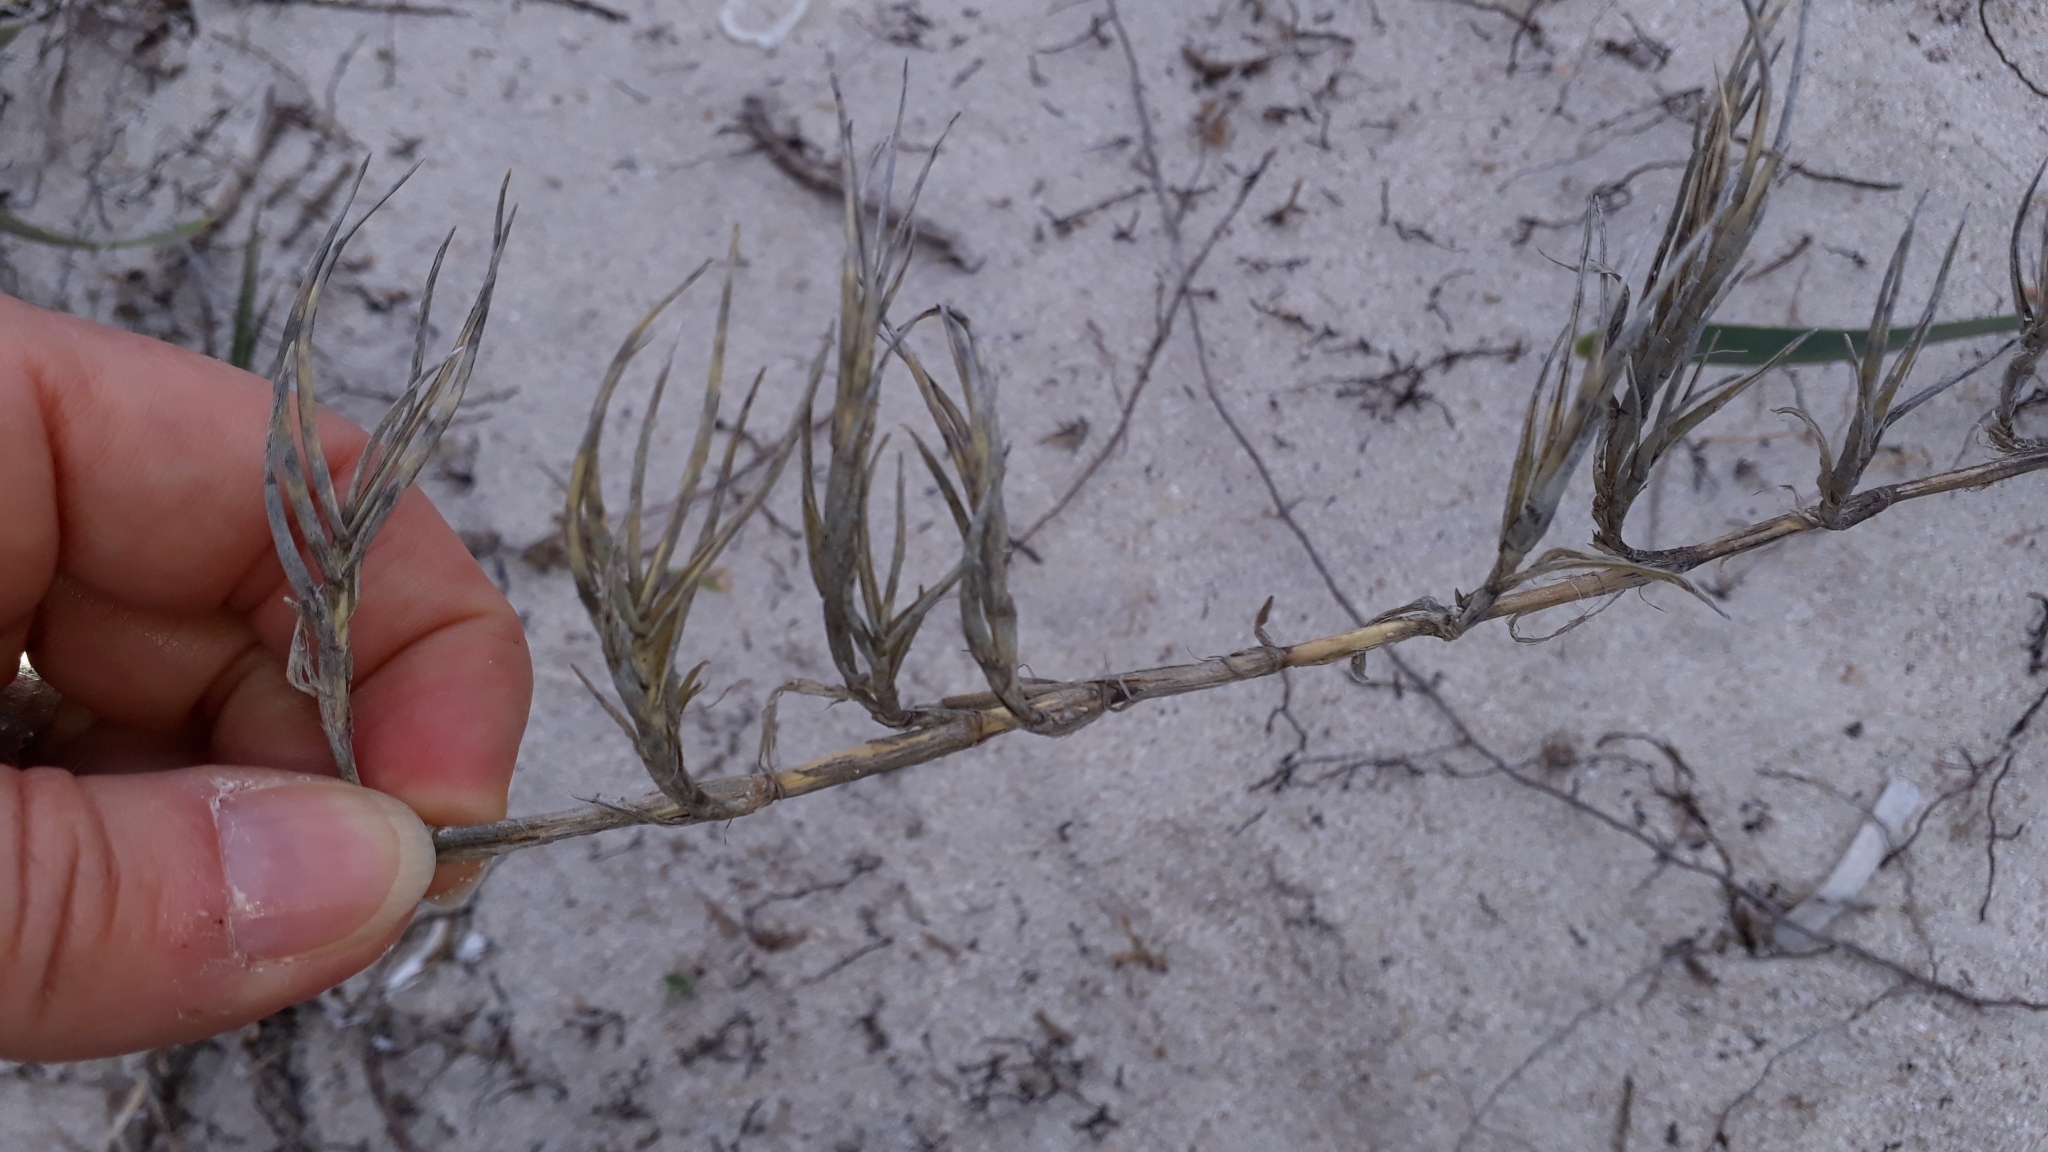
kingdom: Plantae
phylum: Tracheophyta
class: Liliopsida
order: Poales
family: Poaceae
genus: Sporobolus
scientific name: Sporobolus pungens
